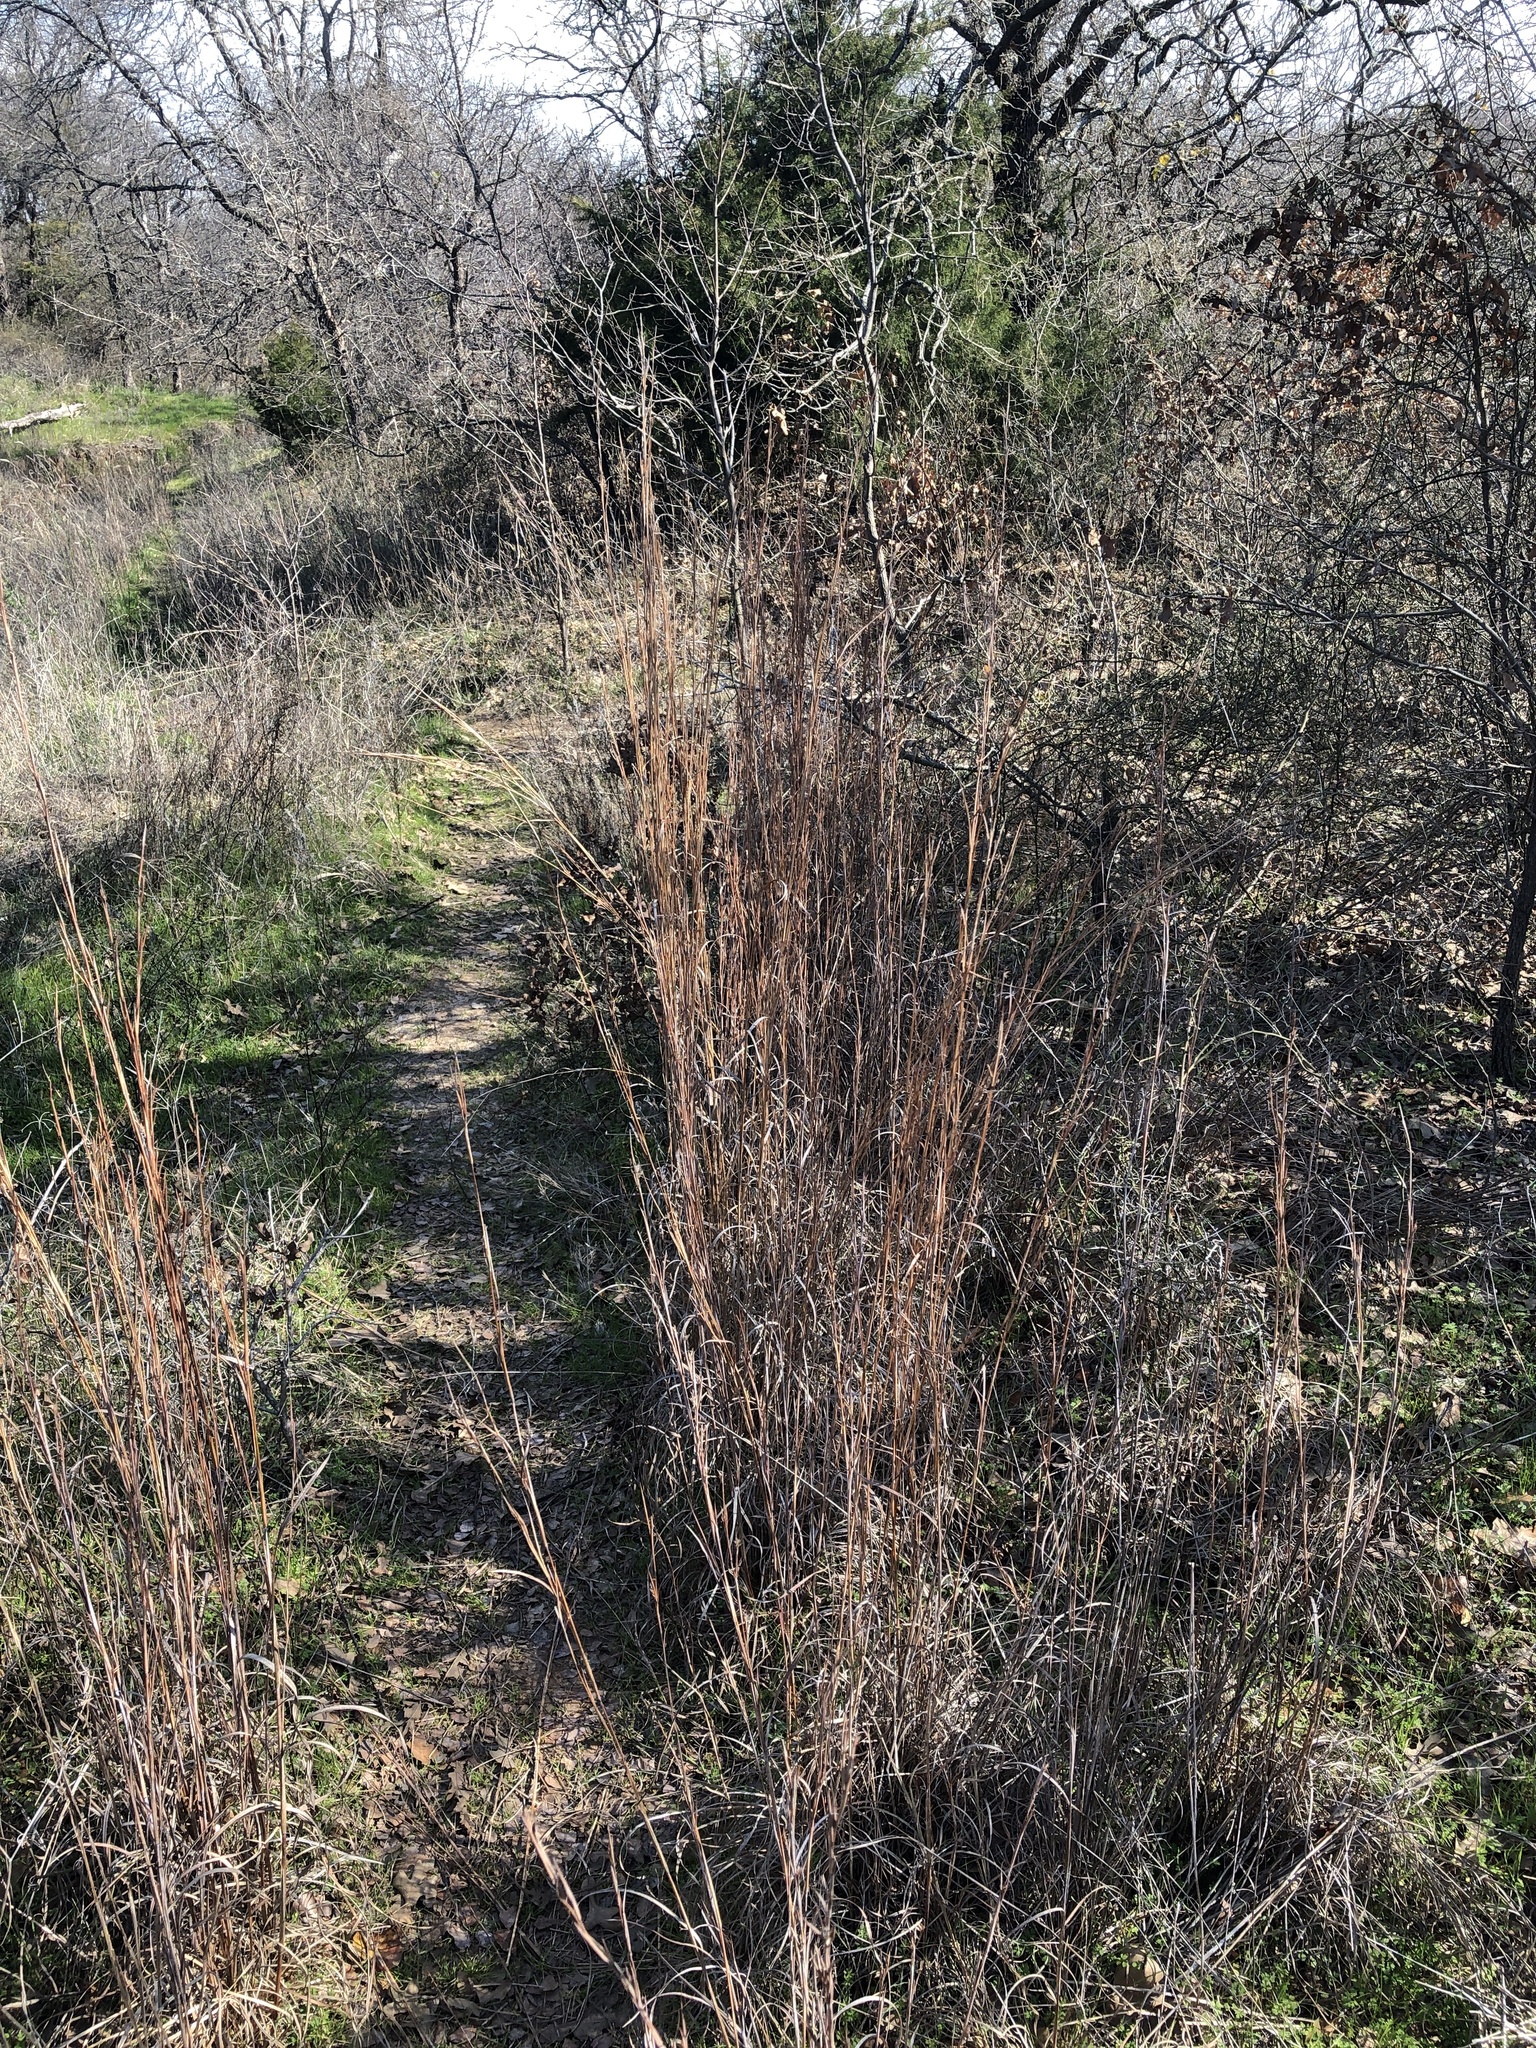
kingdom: Plantae
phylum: Tracheophyta
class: Liliopsida
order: Poales
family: Poaceae
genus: Schizachyrium
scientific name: Schizachyrium scoparium
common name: Little bluestem
